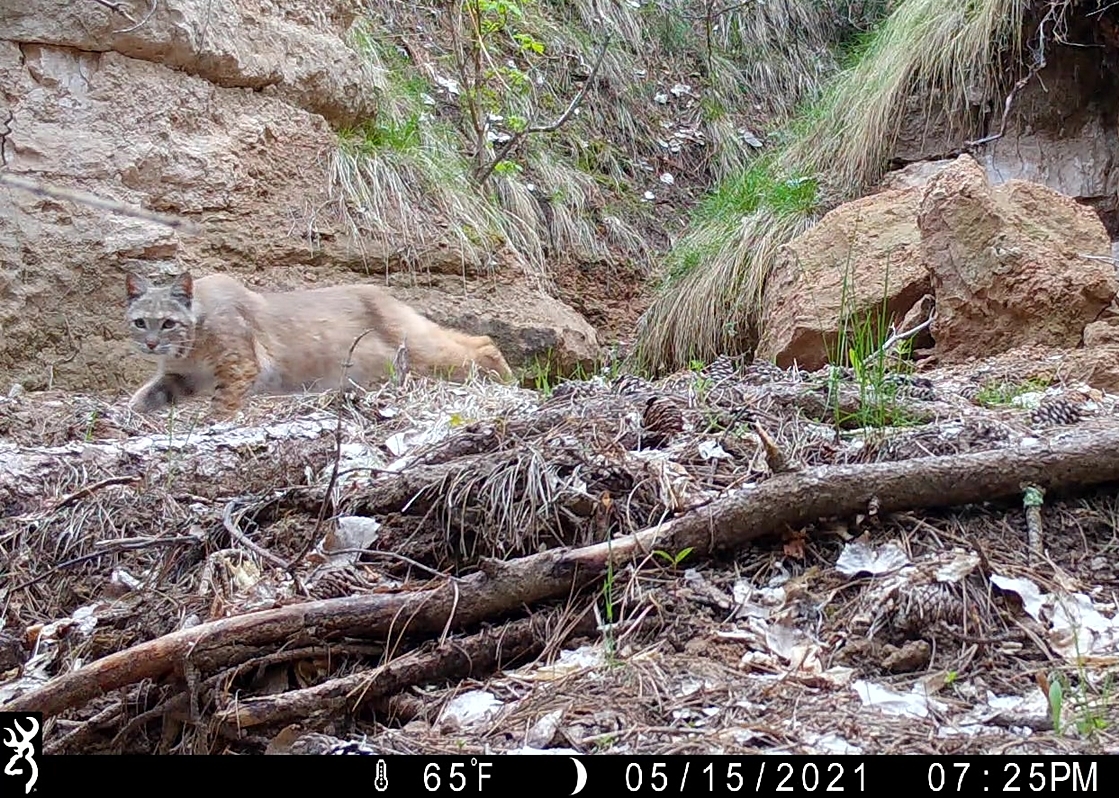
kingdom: Animalia
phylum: Chordata
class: Mammalia
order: Carnivora
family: Felidae
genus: Lynx
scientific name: Lynx rufus
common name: Bobcat
